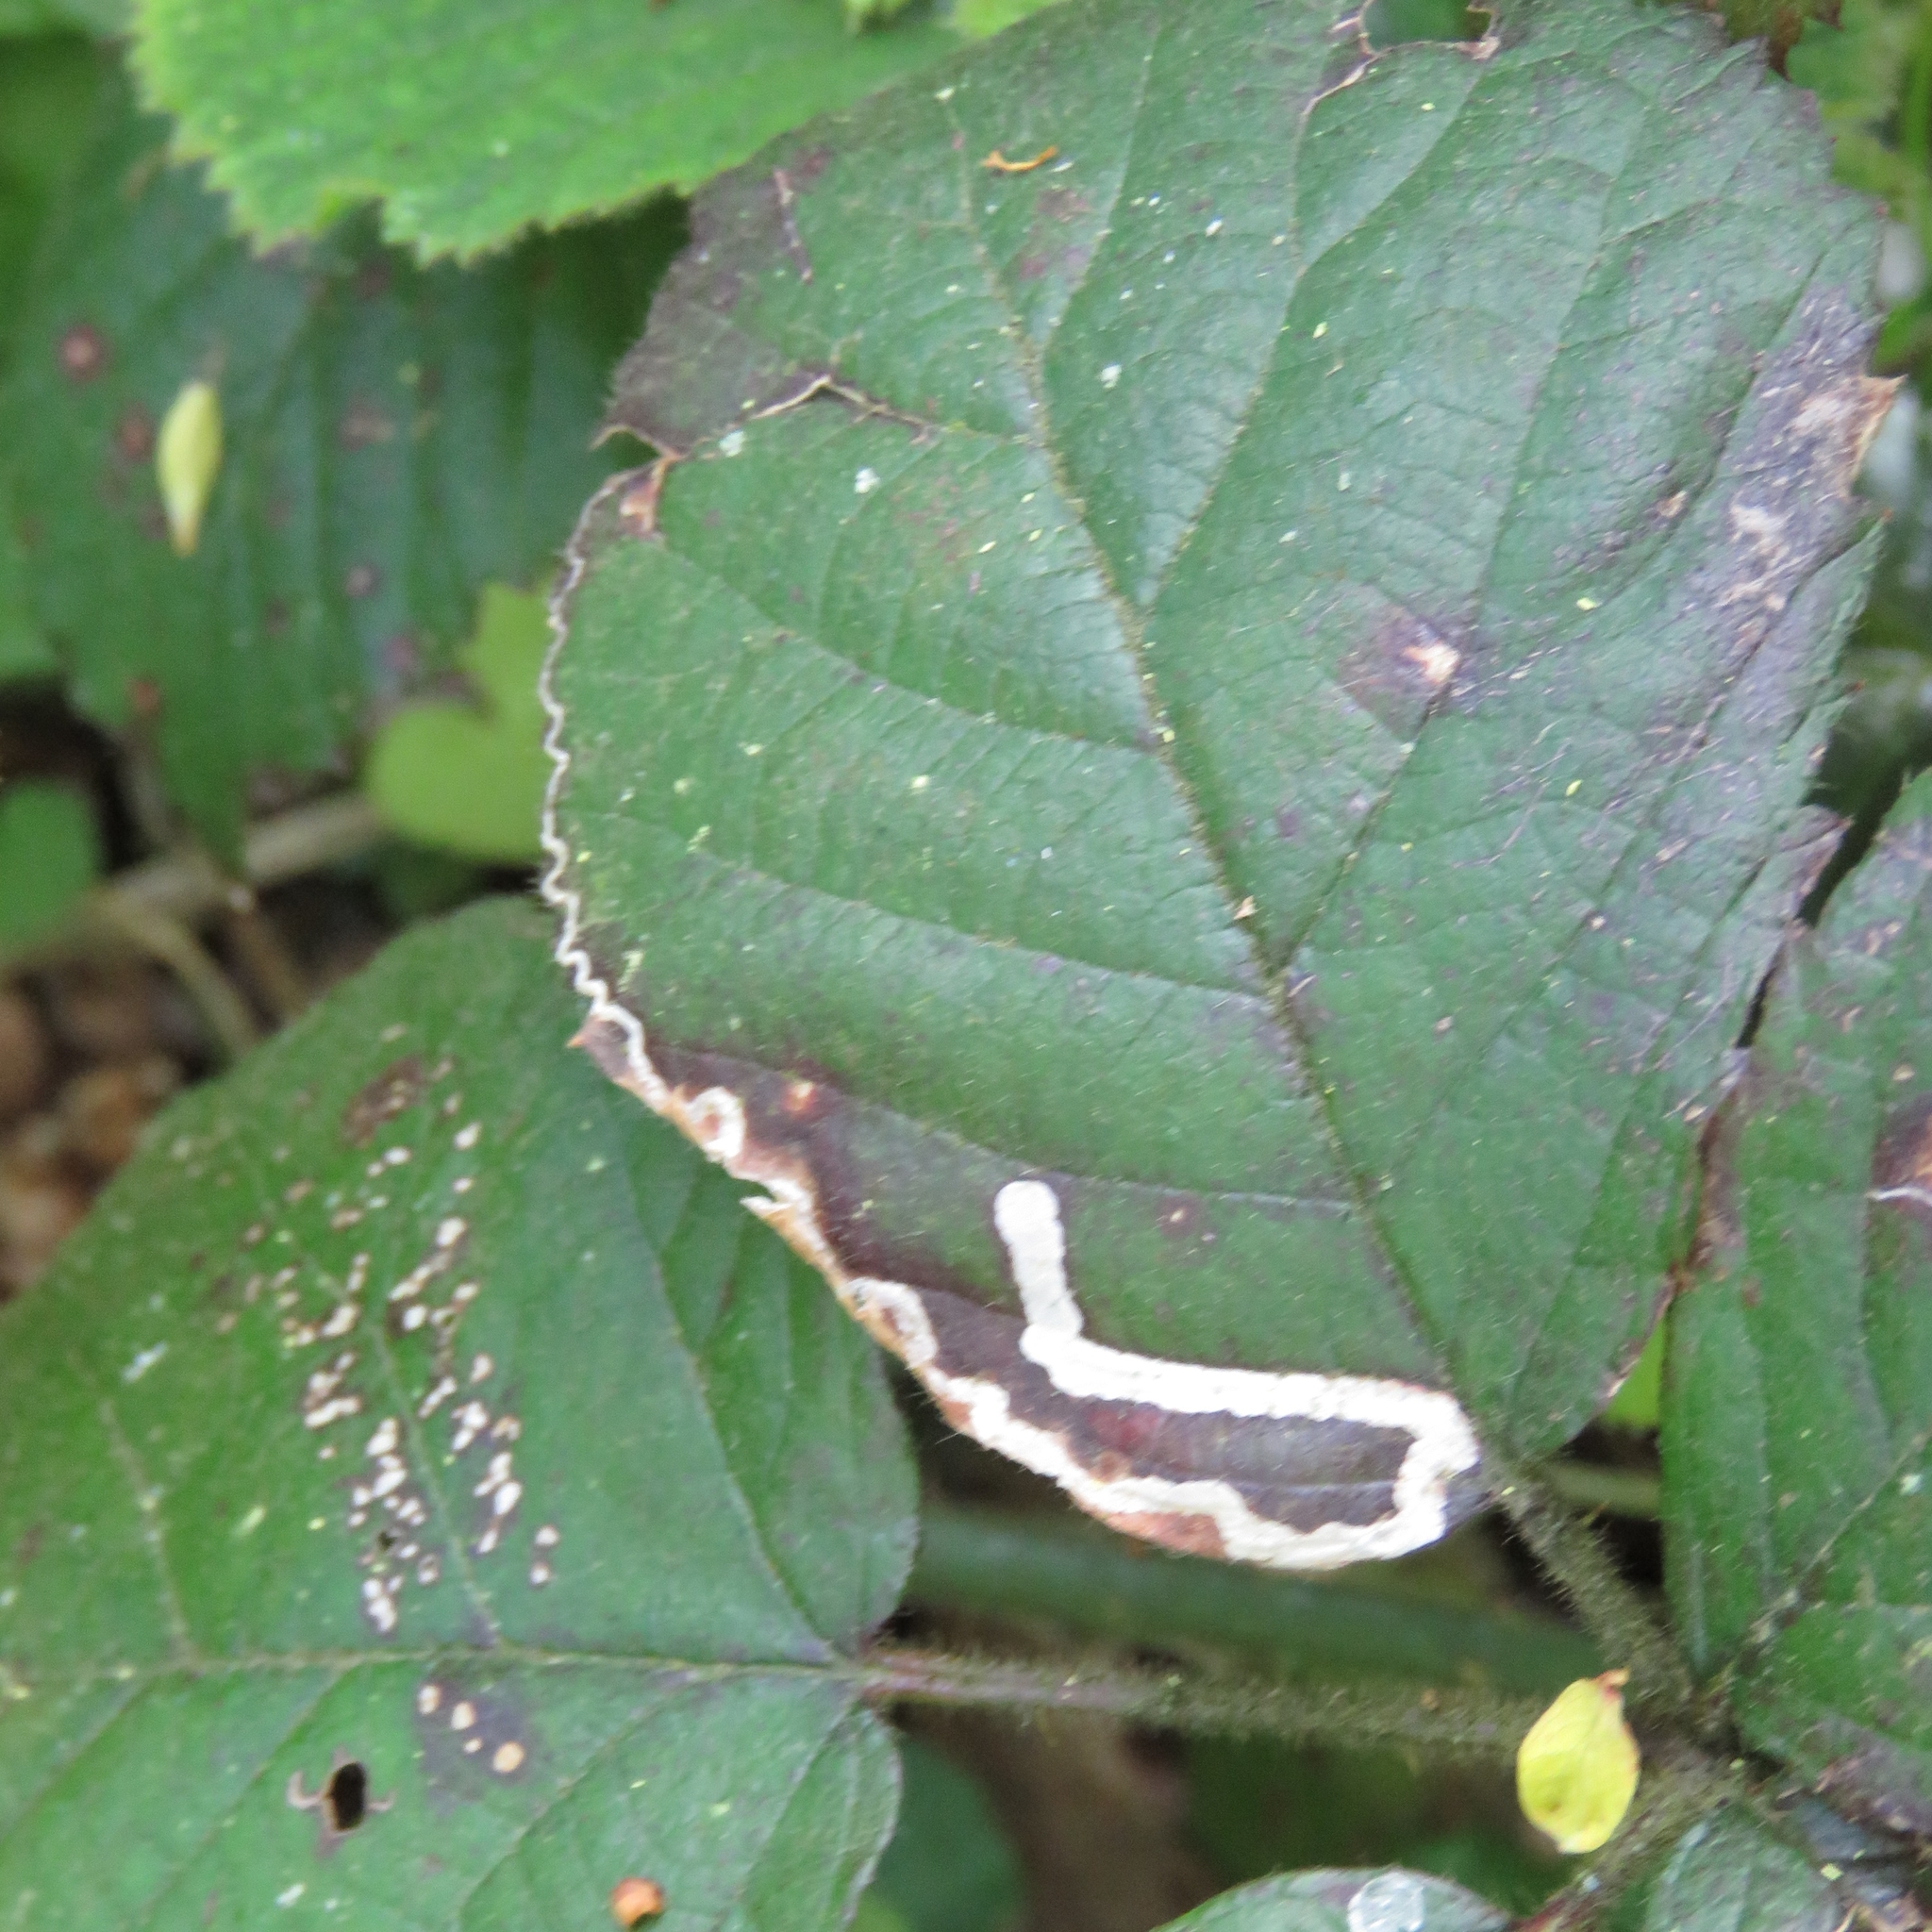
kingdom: Animalia
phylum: Arthropoda
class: Insecta
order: Lepidoptera
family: Nepticulidae
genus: Stigmella
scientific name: Stigmella aurella
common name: Golden pigmy
